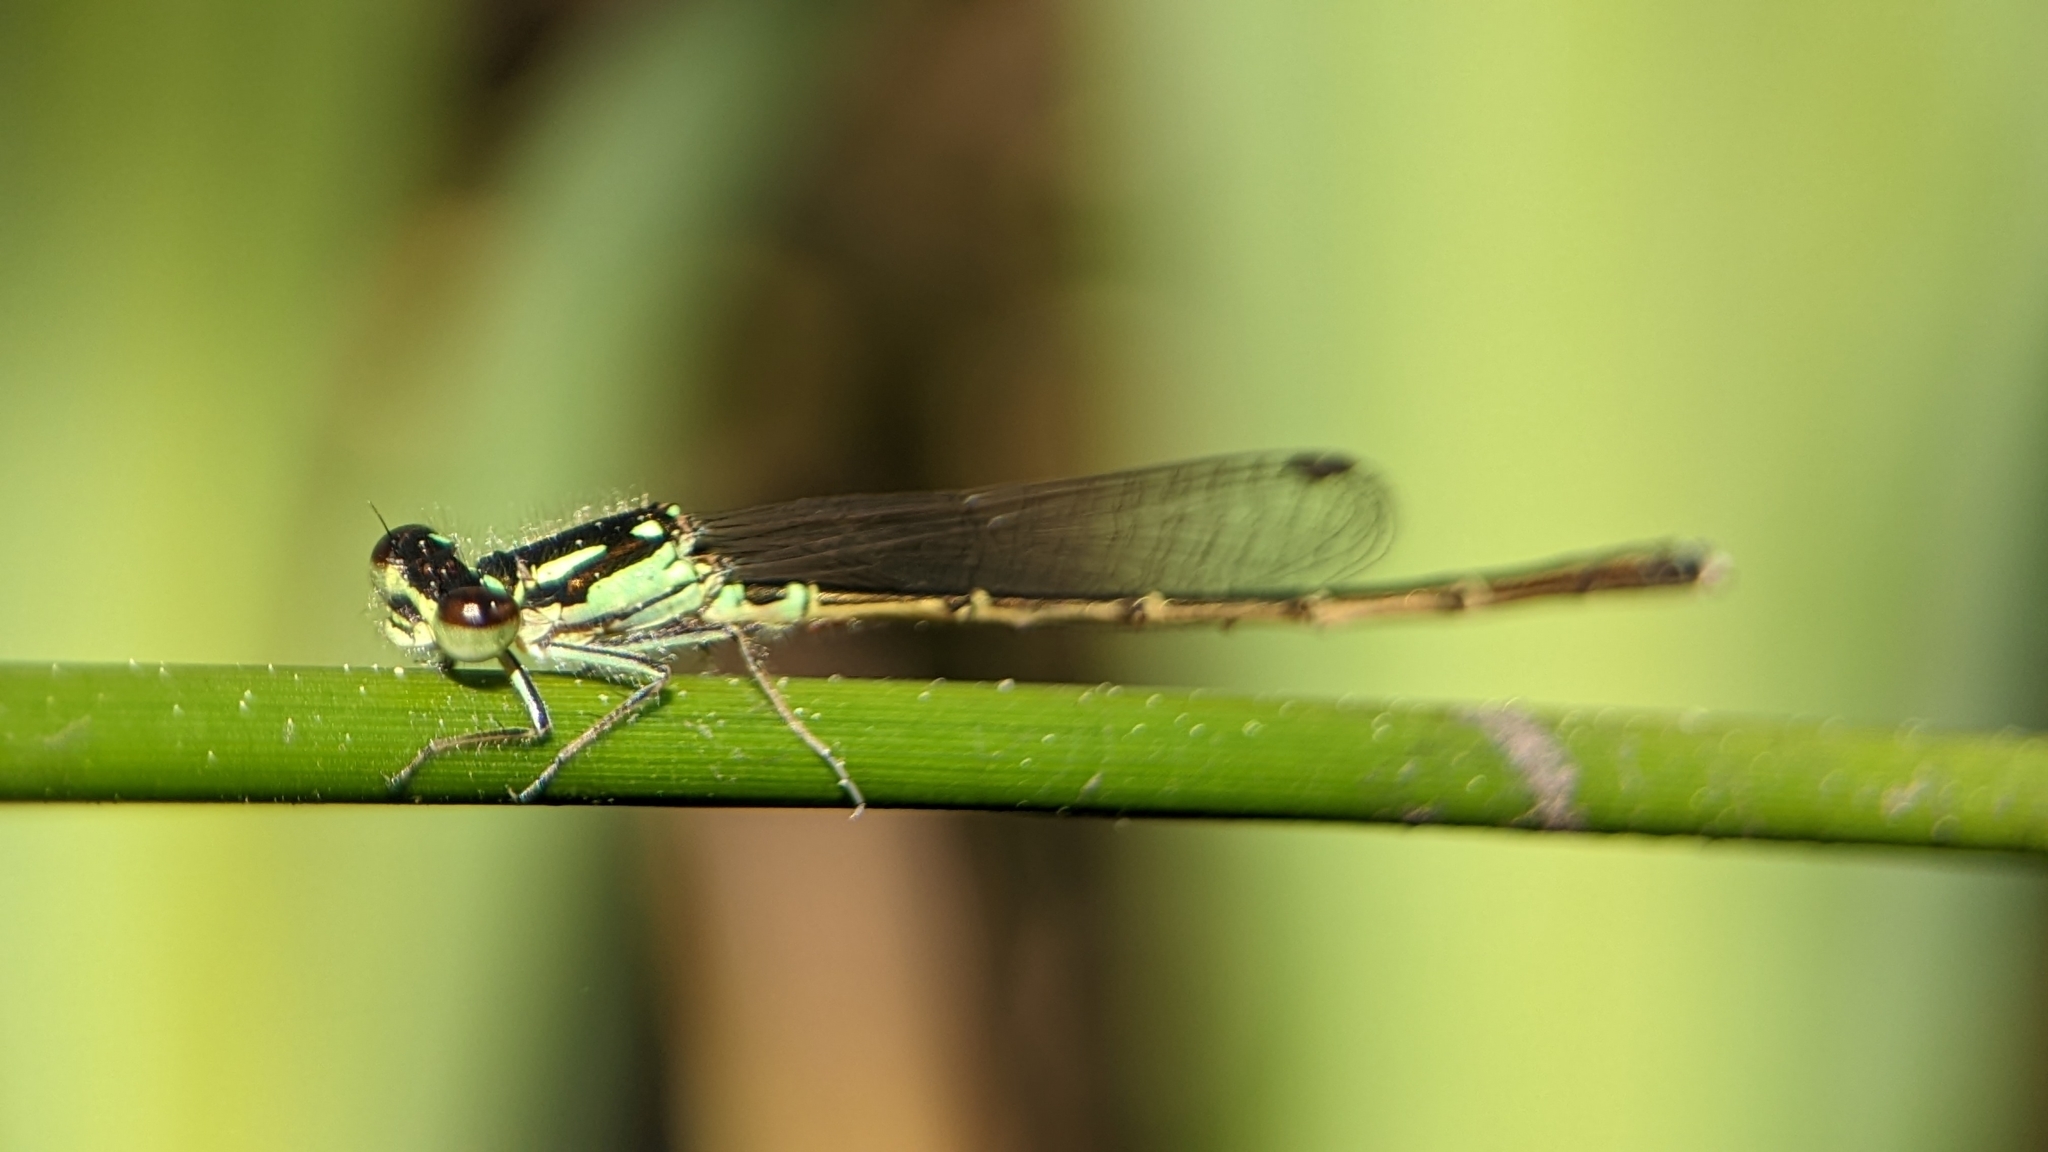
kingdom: Animalia
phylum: Arthropoda
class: Insecta
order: Odonata
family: Coenagrionidae
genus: Ischnura
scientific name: Ischnura posita
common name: Fragile forktail
